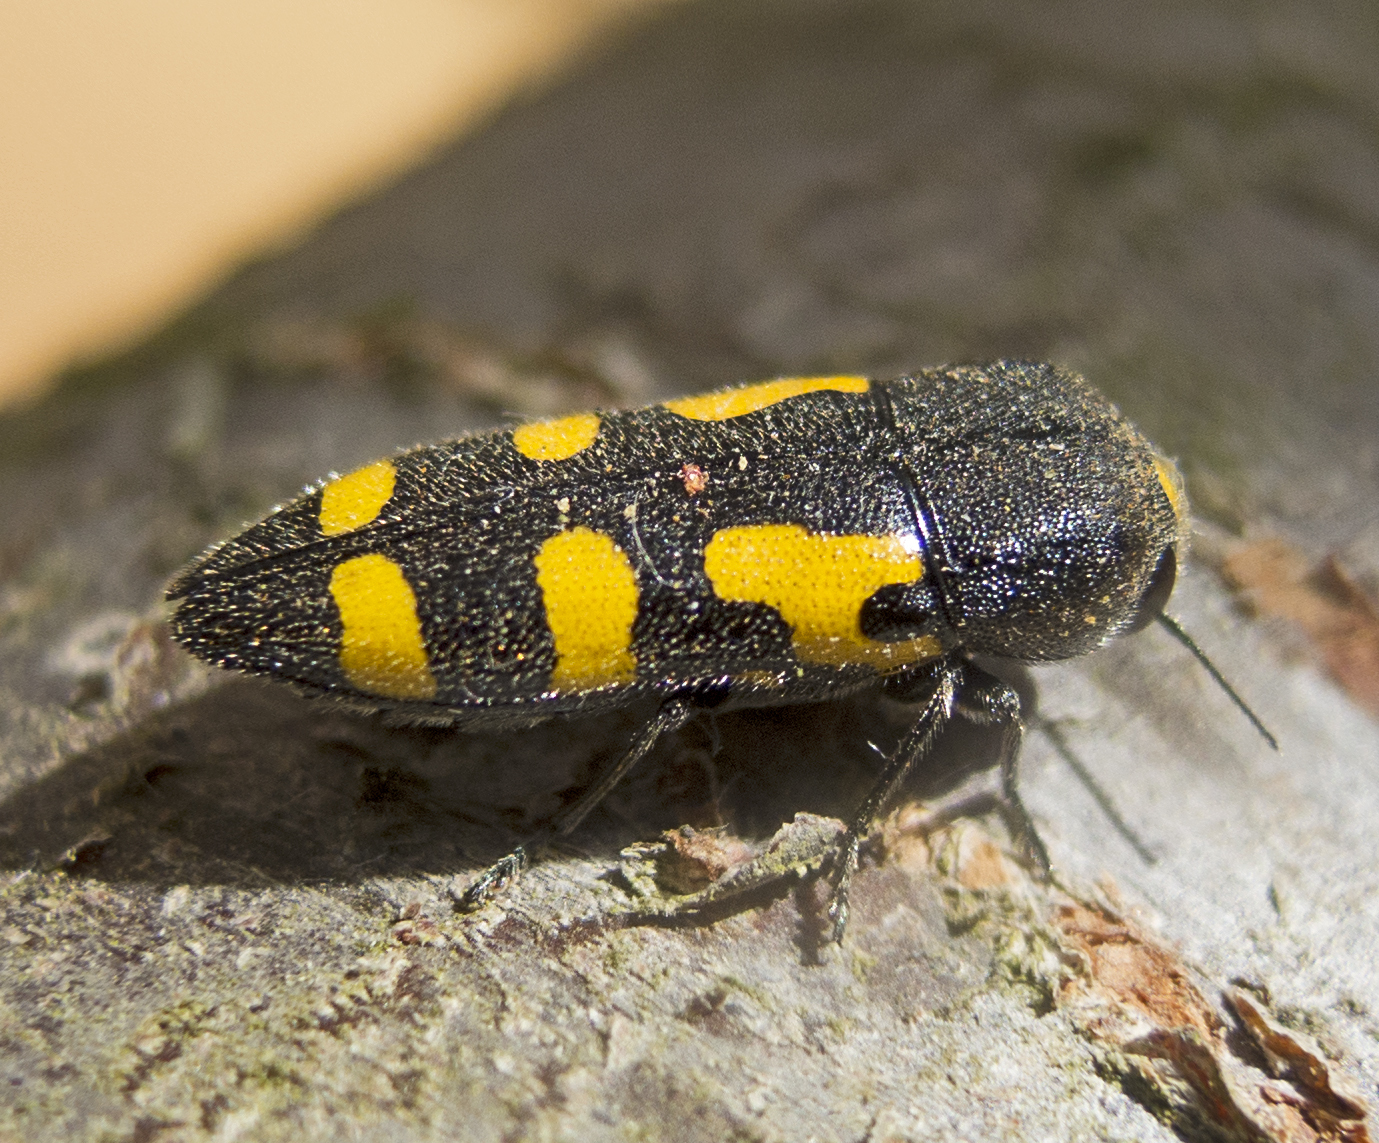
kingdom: Animalia
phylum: Arthropoda
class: Insecta
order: Coleoptera
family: Buprestidae
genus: Ptosima
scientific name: Ptosima undecimmaculata
